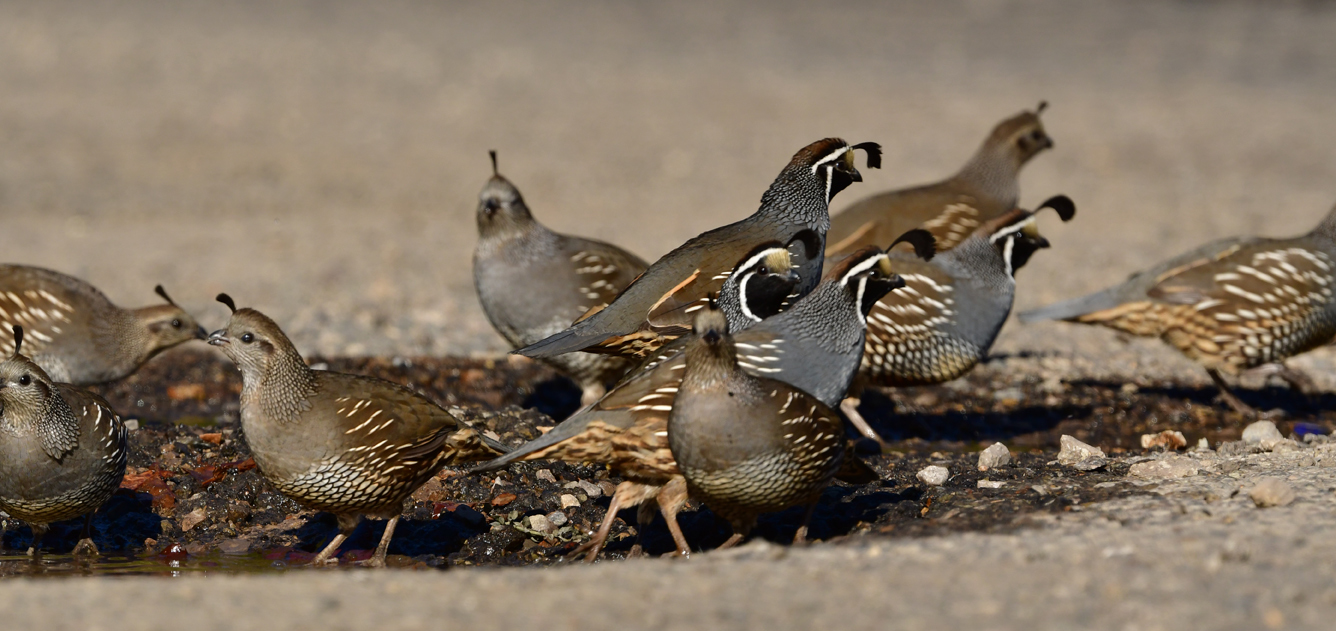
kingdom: Animalia
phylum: Chordata
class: Aves
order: Galliformes
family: Odontophoridae
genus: Callipepla
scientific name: Callipepla californica
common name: California quail
